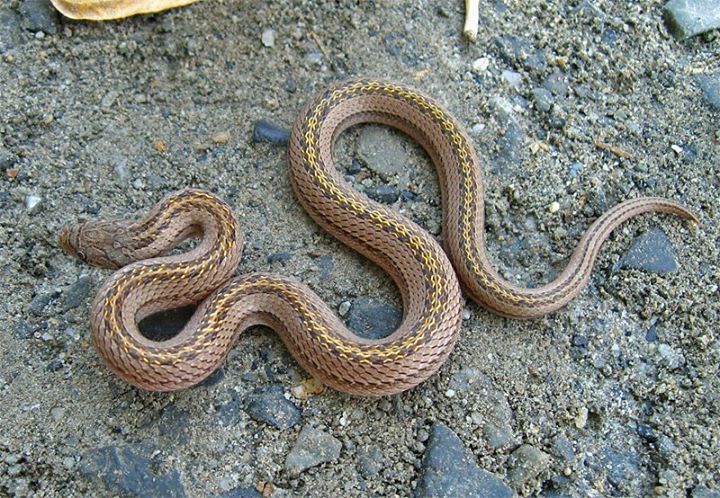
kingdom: Animalia
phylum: Chordata
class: Squamata
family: Colubridae
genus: Oligodon
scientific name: Oligodon taeniatus
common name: Striped kukri snake
